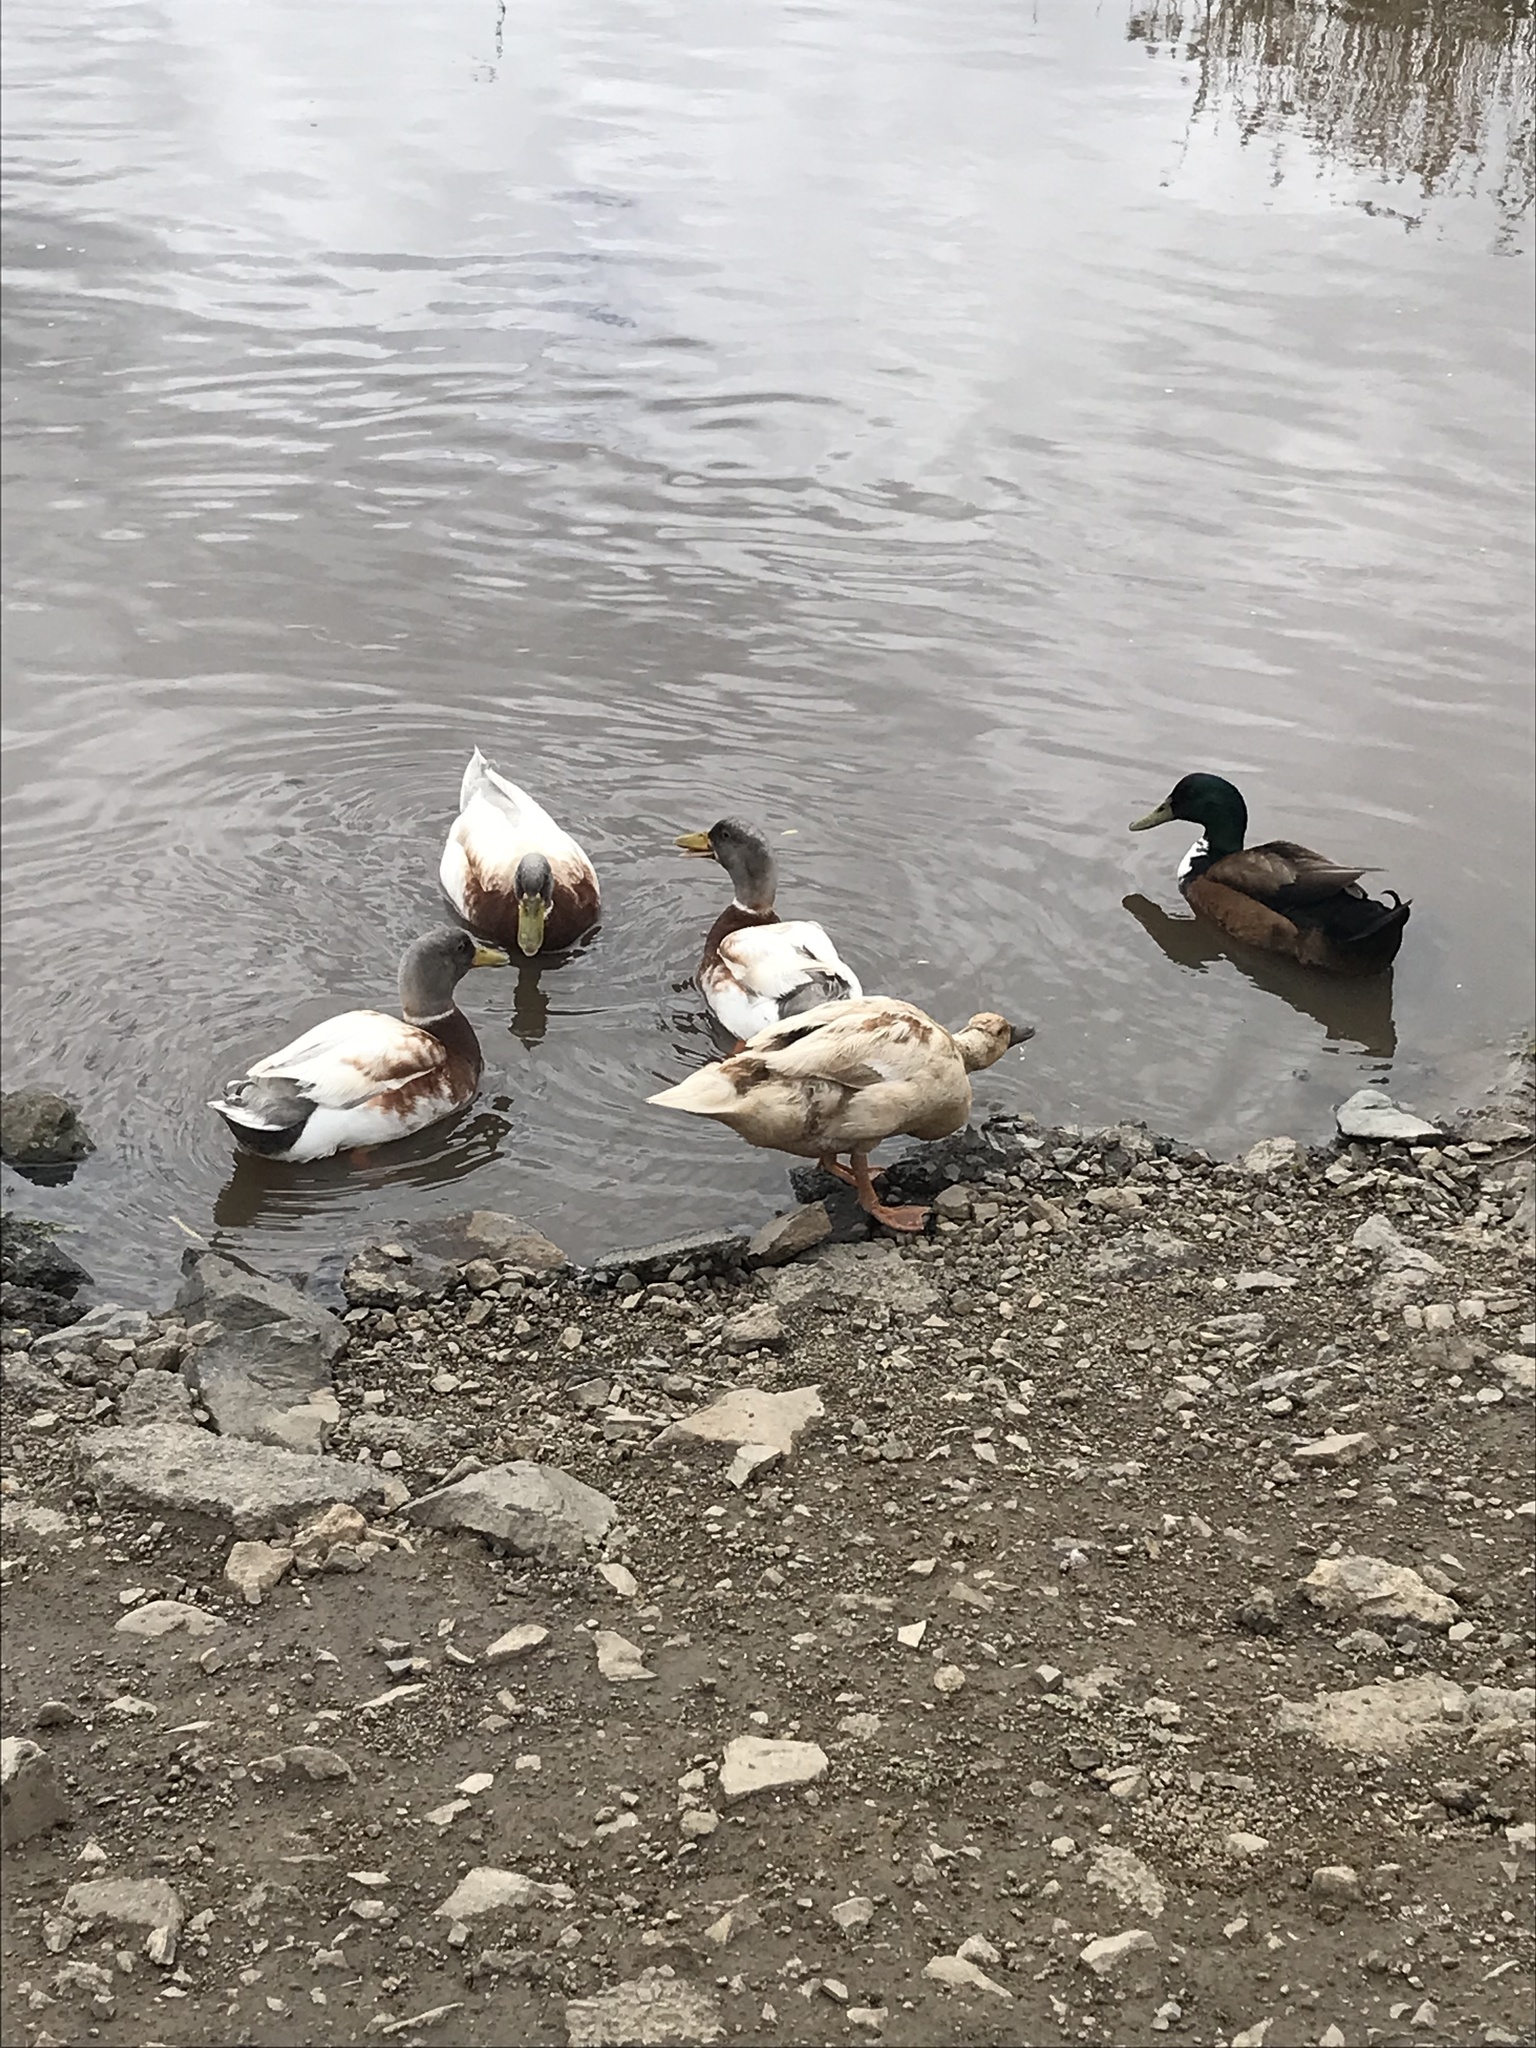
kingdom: Animalia
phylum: Chordata
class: Aves
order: Anseriformes
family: Anatidae
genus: Anas
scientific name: Anas platyrhynchos
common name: Mallard
